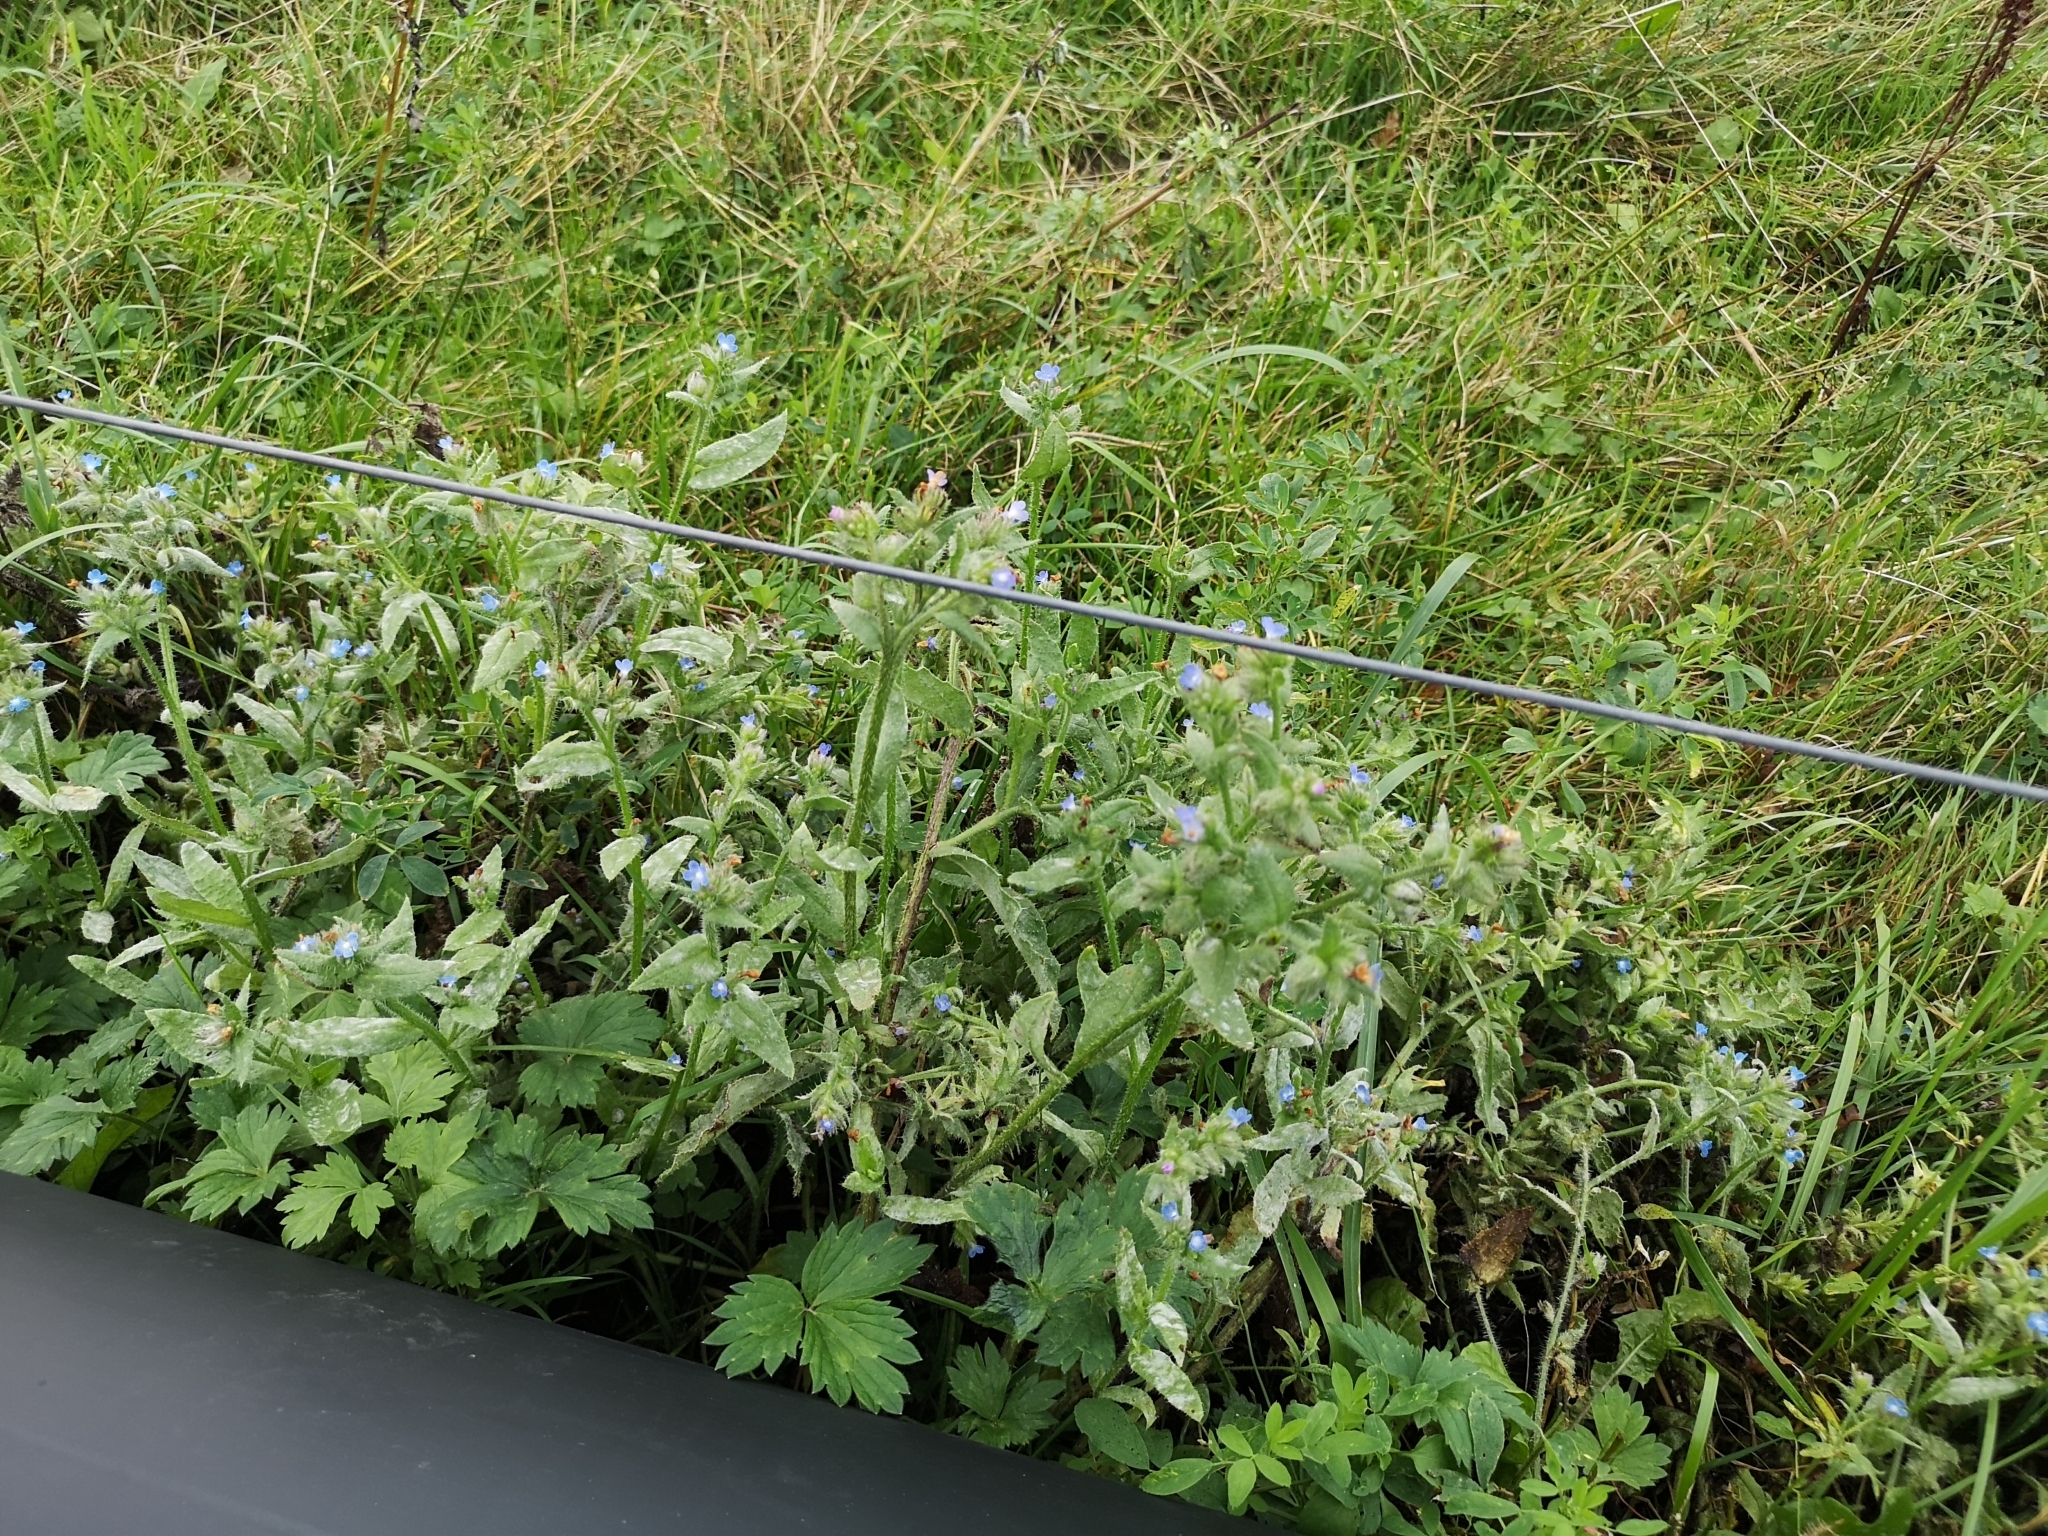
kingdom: Plantae
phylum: Tracheophyta
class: Magnoliopsida
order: Boraginales
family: Boraginaceae
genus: Lycopsis
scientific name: Lycopsis arvensis
